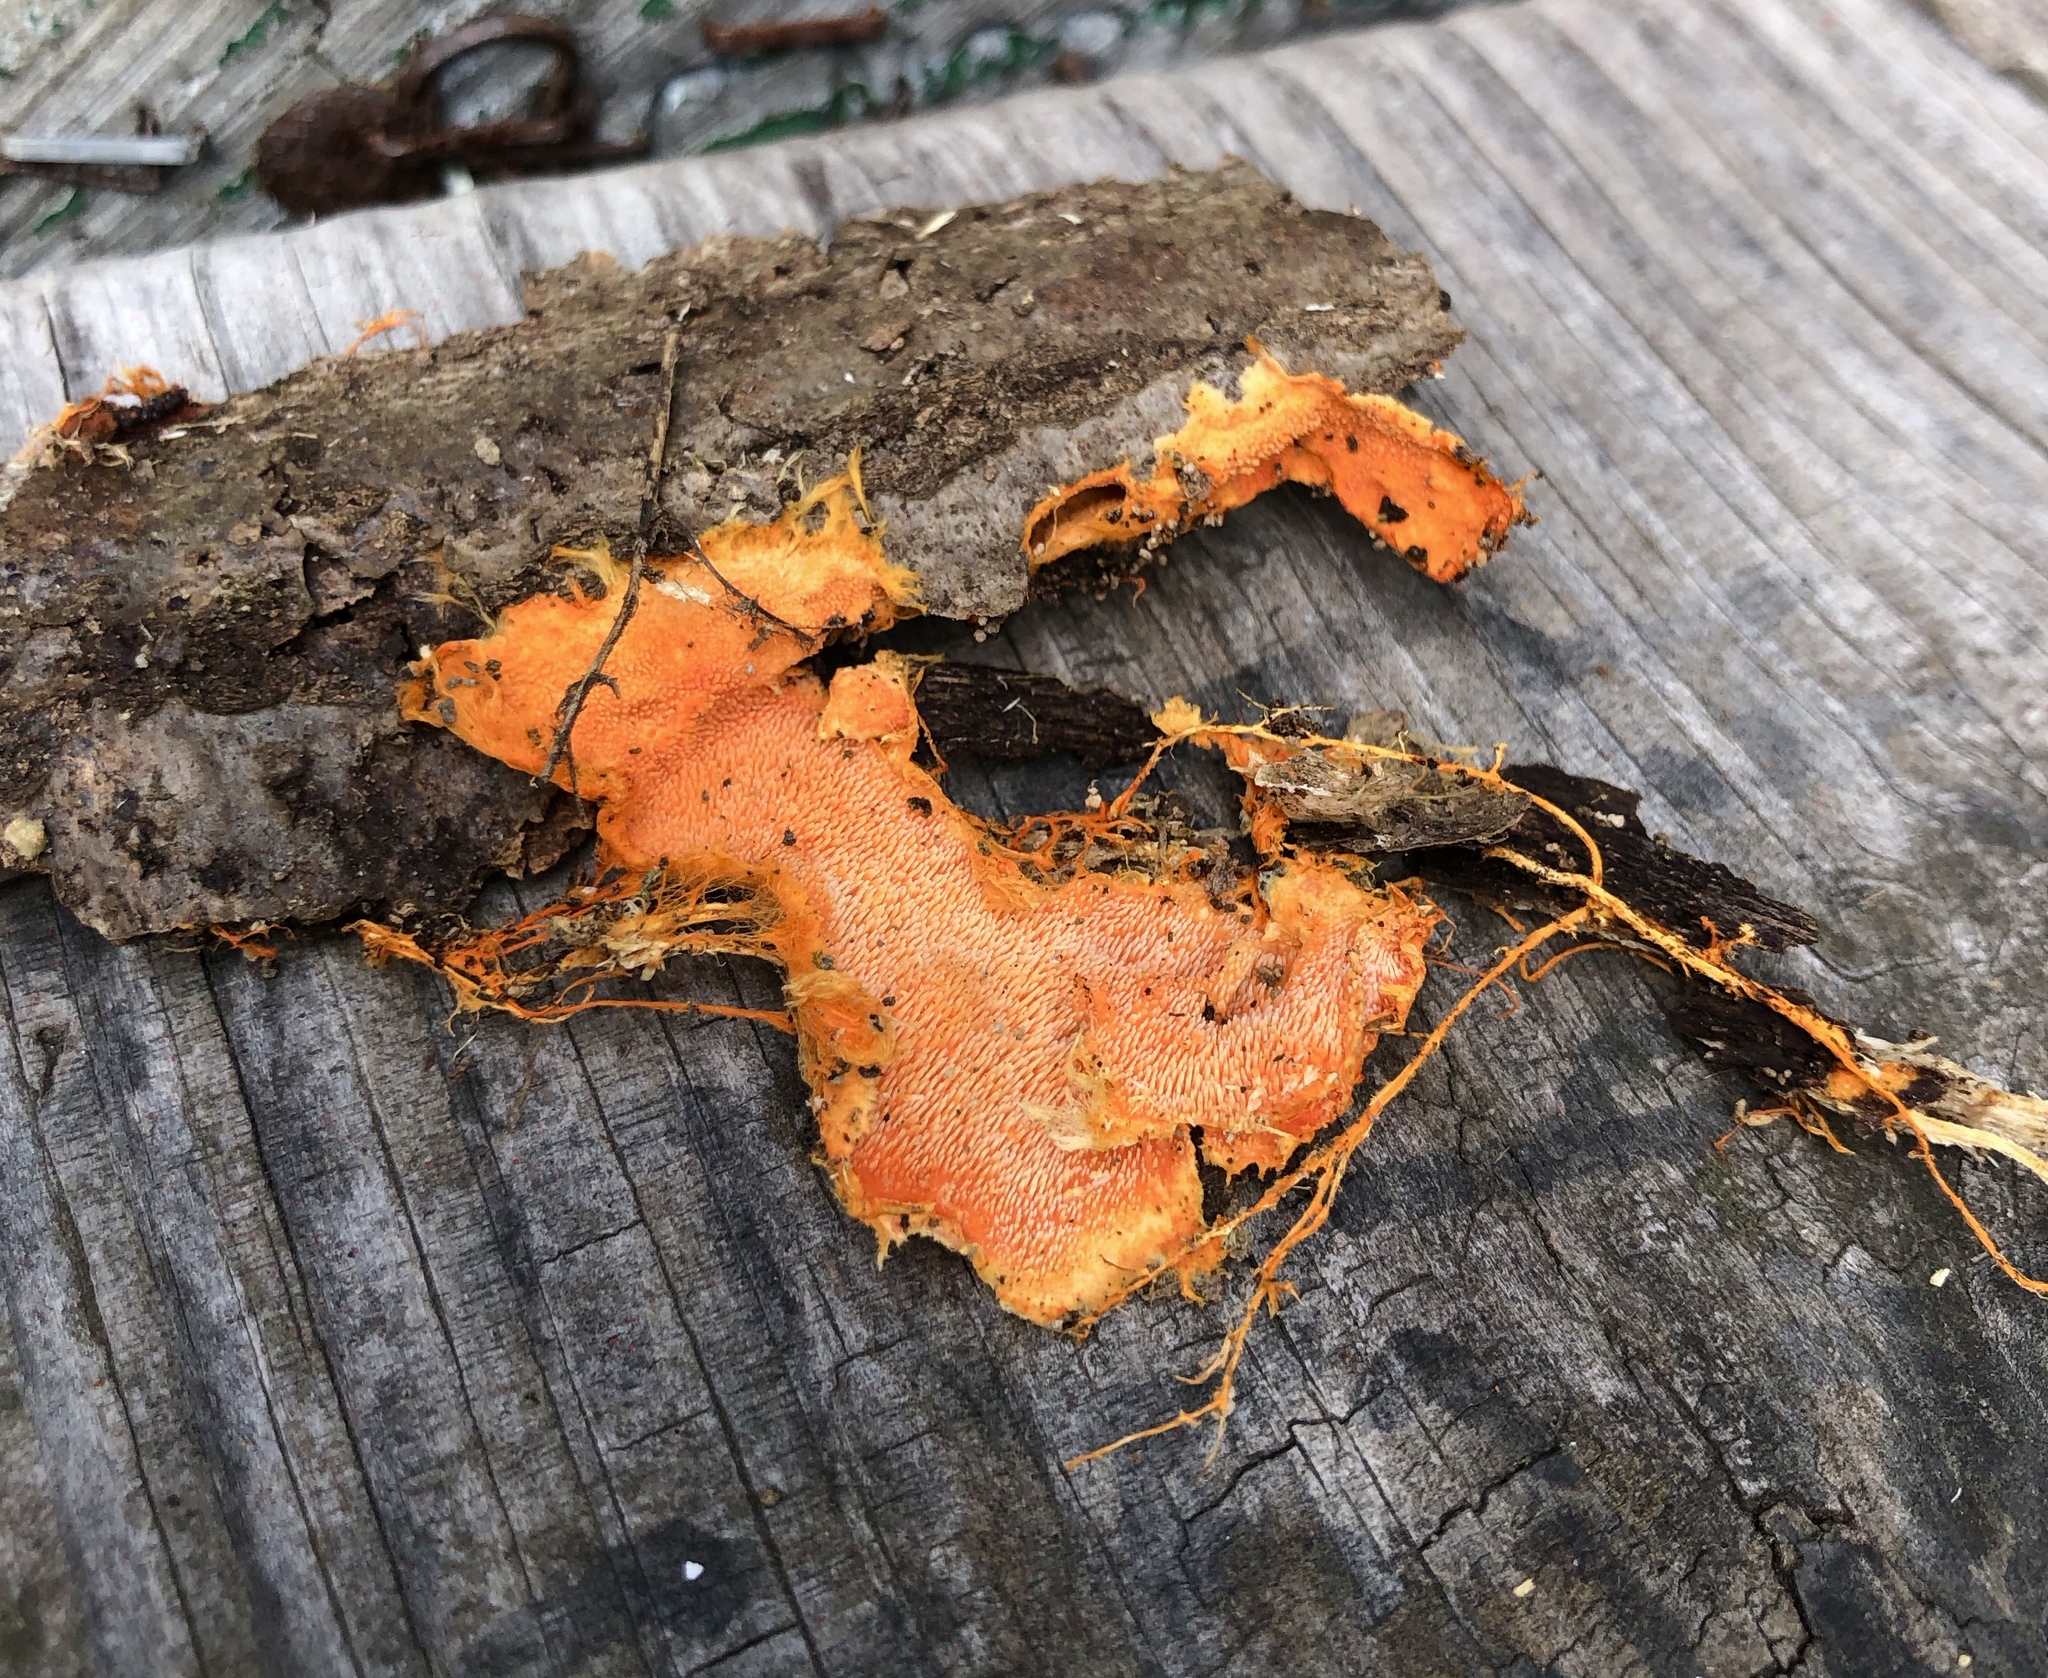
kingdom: Fungi
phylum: Basidiomycota
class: Agaricomycetes
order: Polyporales
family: Meruliaceae
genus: Hydnophlebia
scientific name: Hydnophlebia chrysorhiza
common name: Spreading yellow tooth
